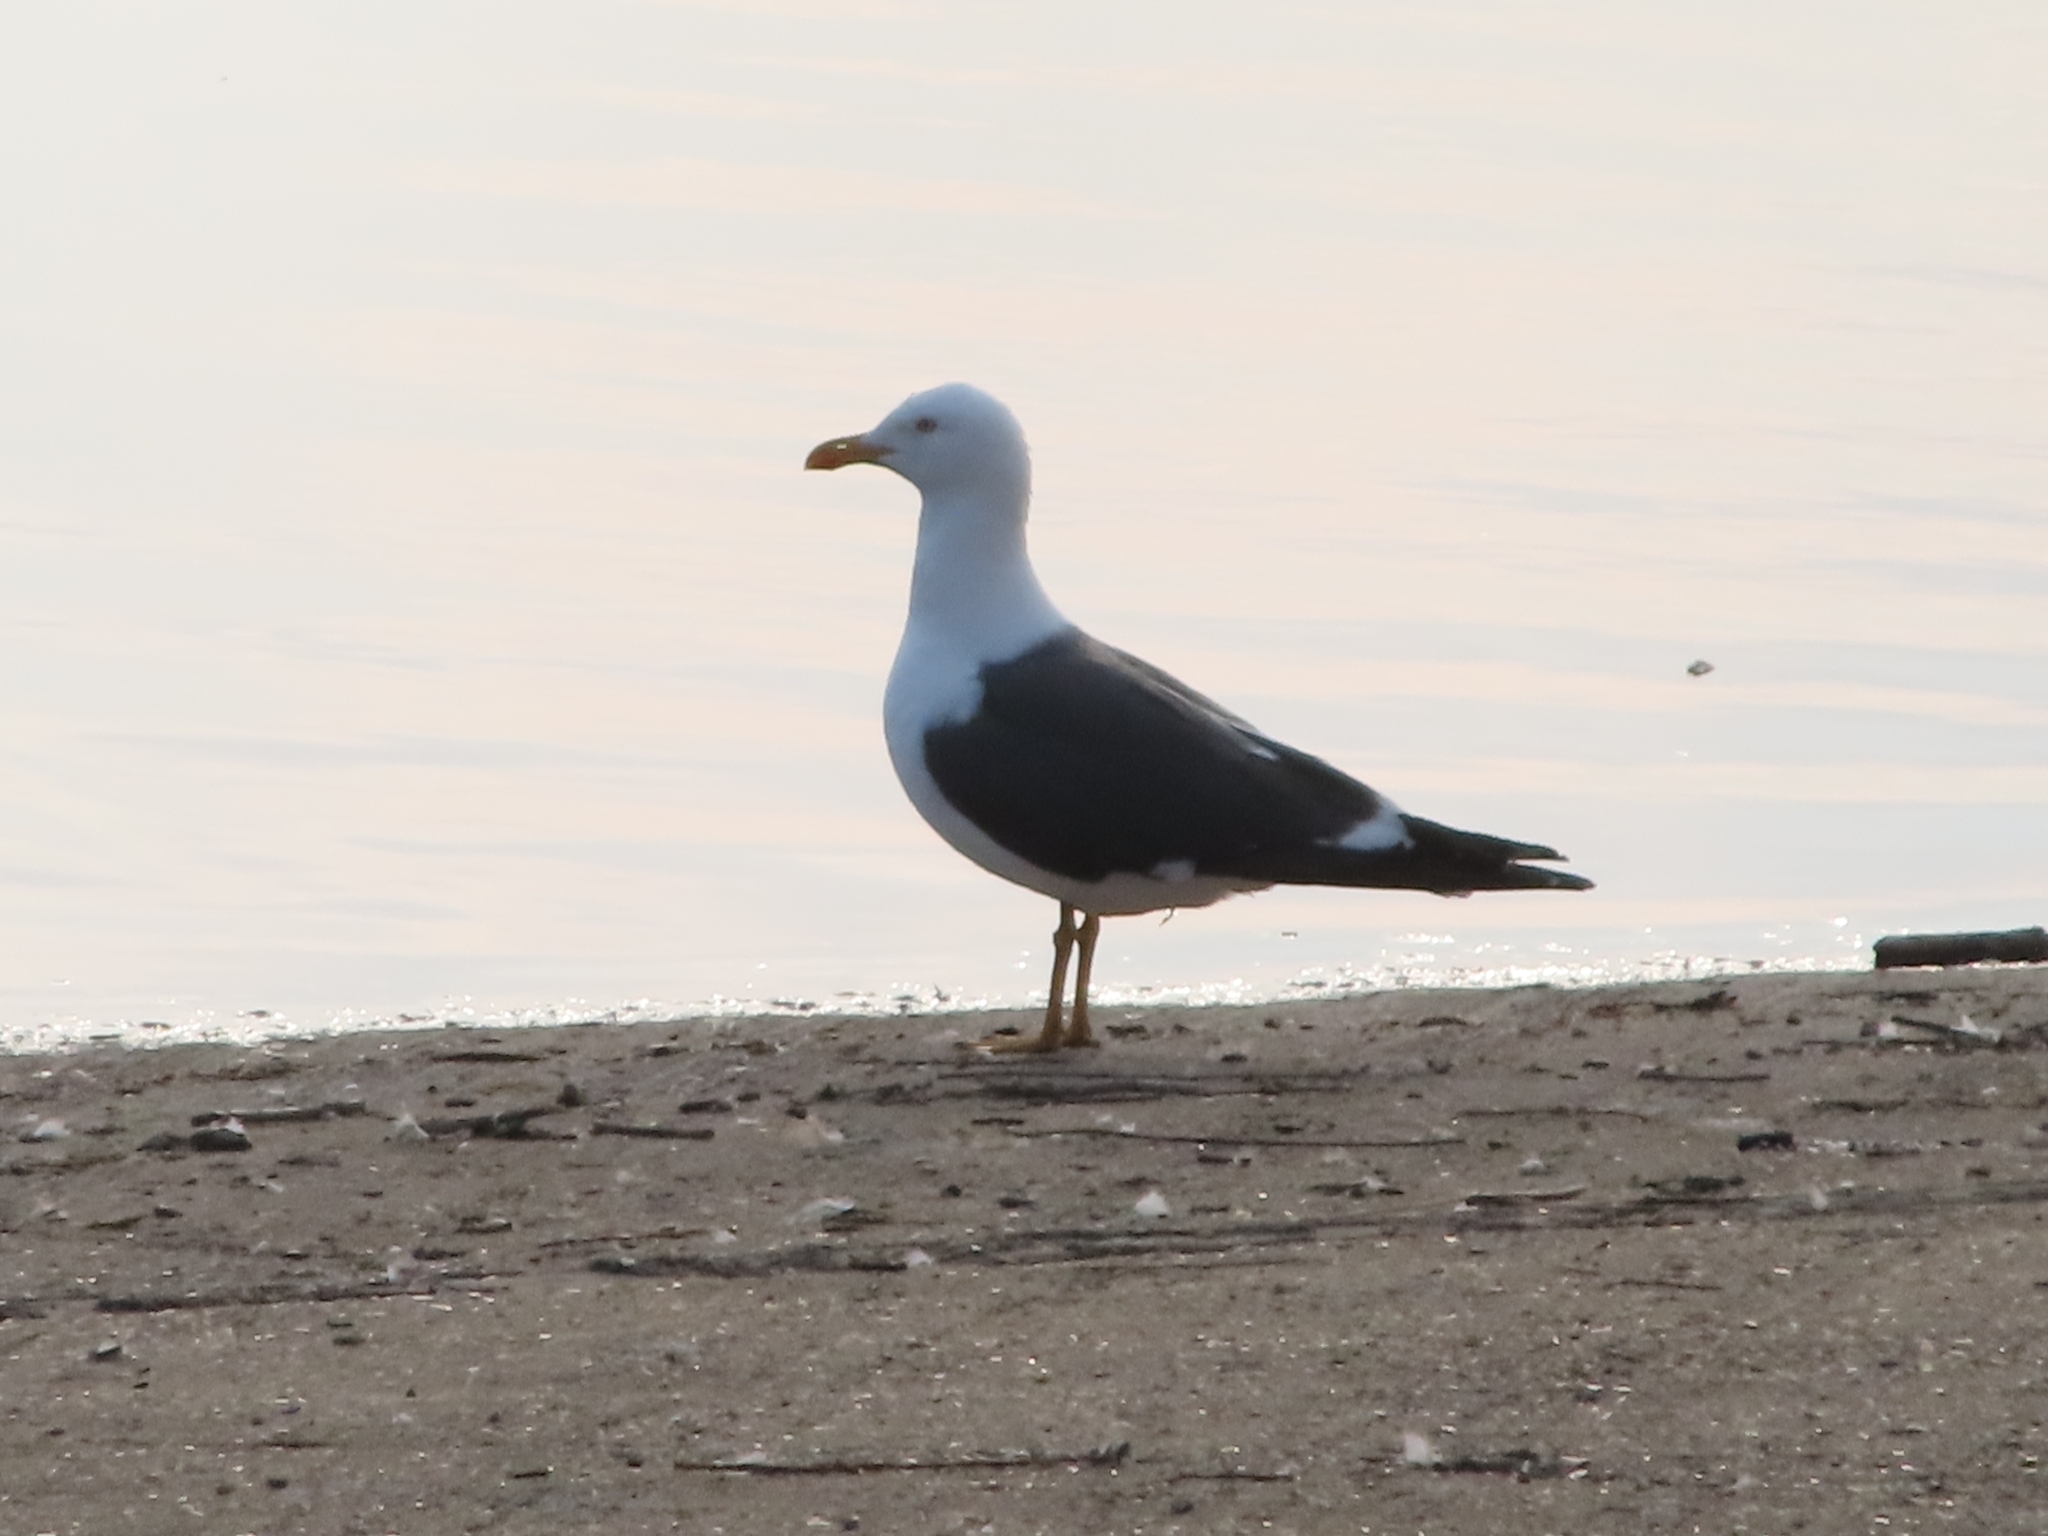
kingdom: Animalia
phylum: Chordata
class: Aves
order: Charadriiformes
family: Laridae
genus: Larus
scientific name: Larus fuscus
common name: Lesser black-backed gull
